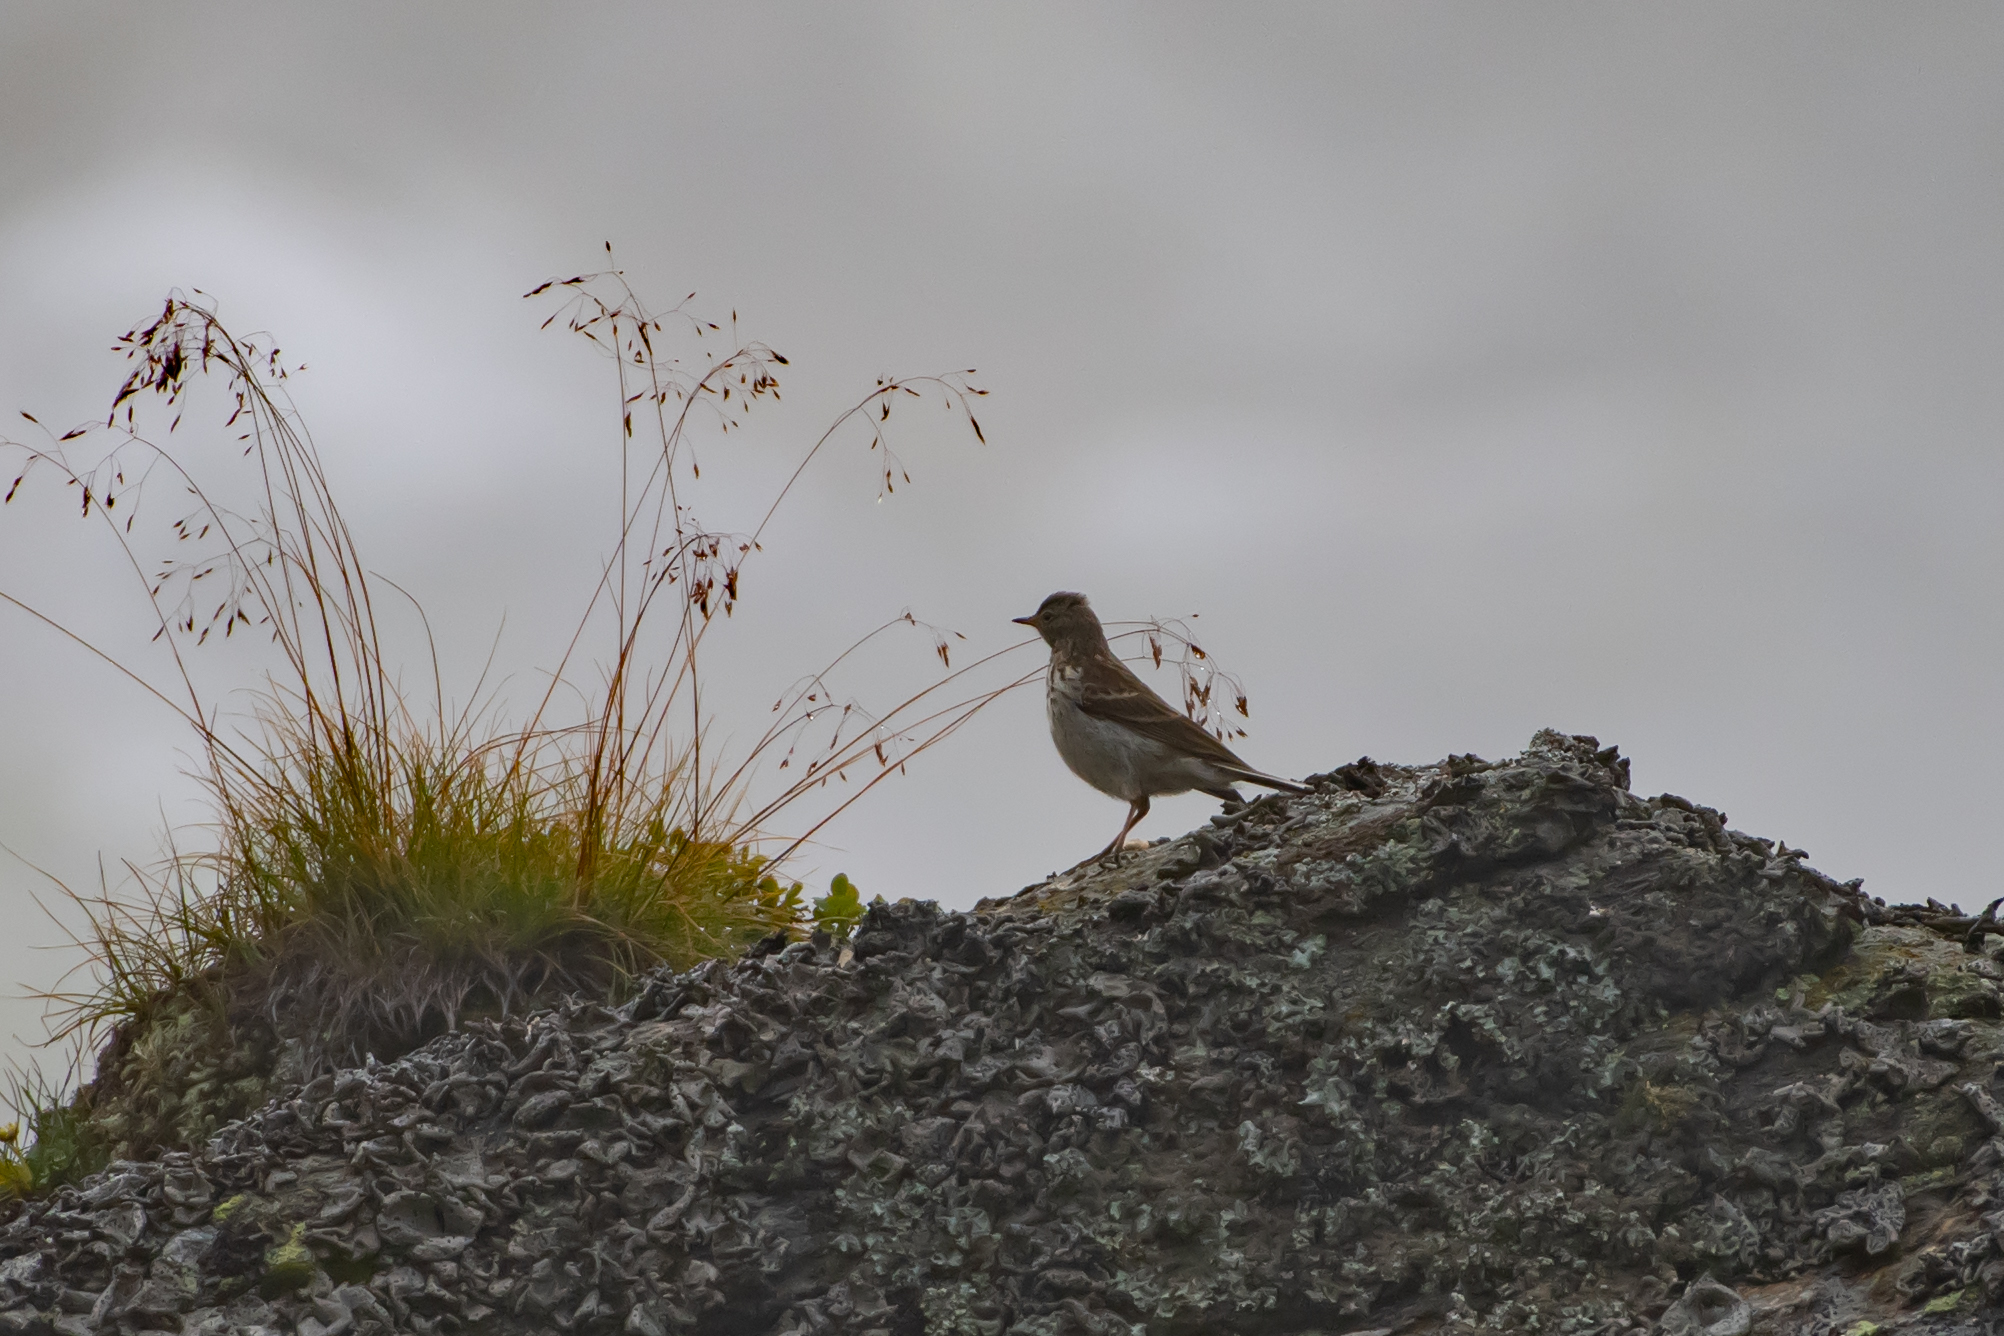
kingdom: Animalia
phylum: Chordata
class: Aves
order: Passeriformes
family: Motacillidae
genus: Anthus
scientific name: Anthus spinoletta
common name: Water pipit
